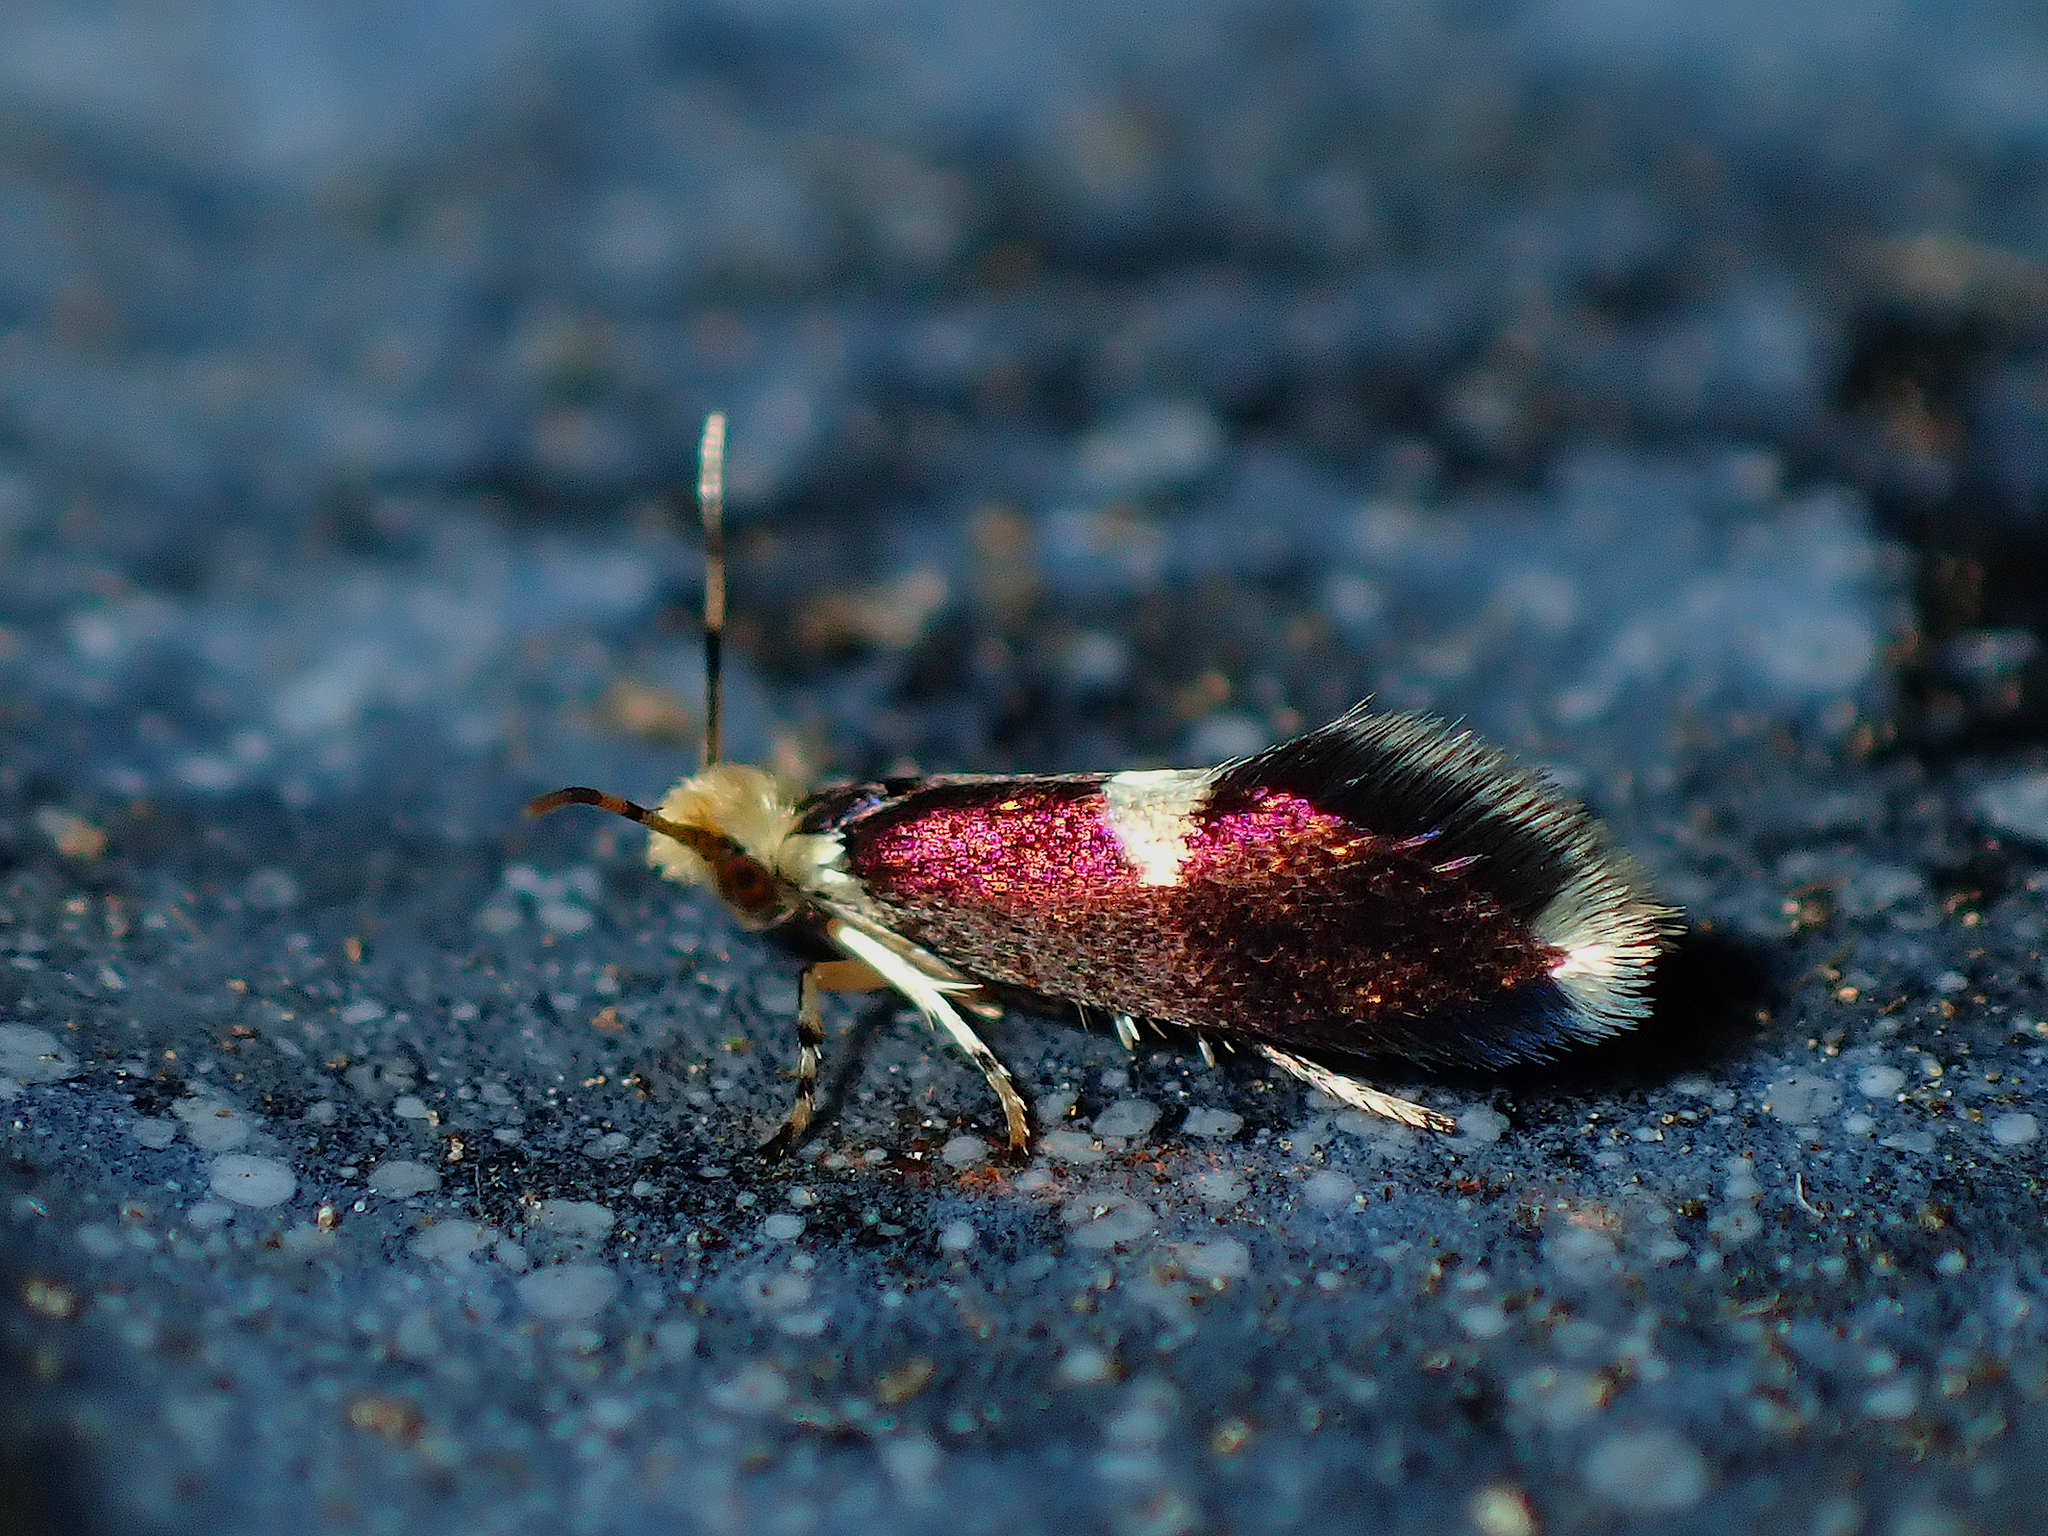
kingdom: Animalia
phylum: Arthropoda
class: Insecta
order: Lepidoptera
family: Micropterigidae
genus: Zealandopterix
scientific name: Zealandopterix zonodoxa
